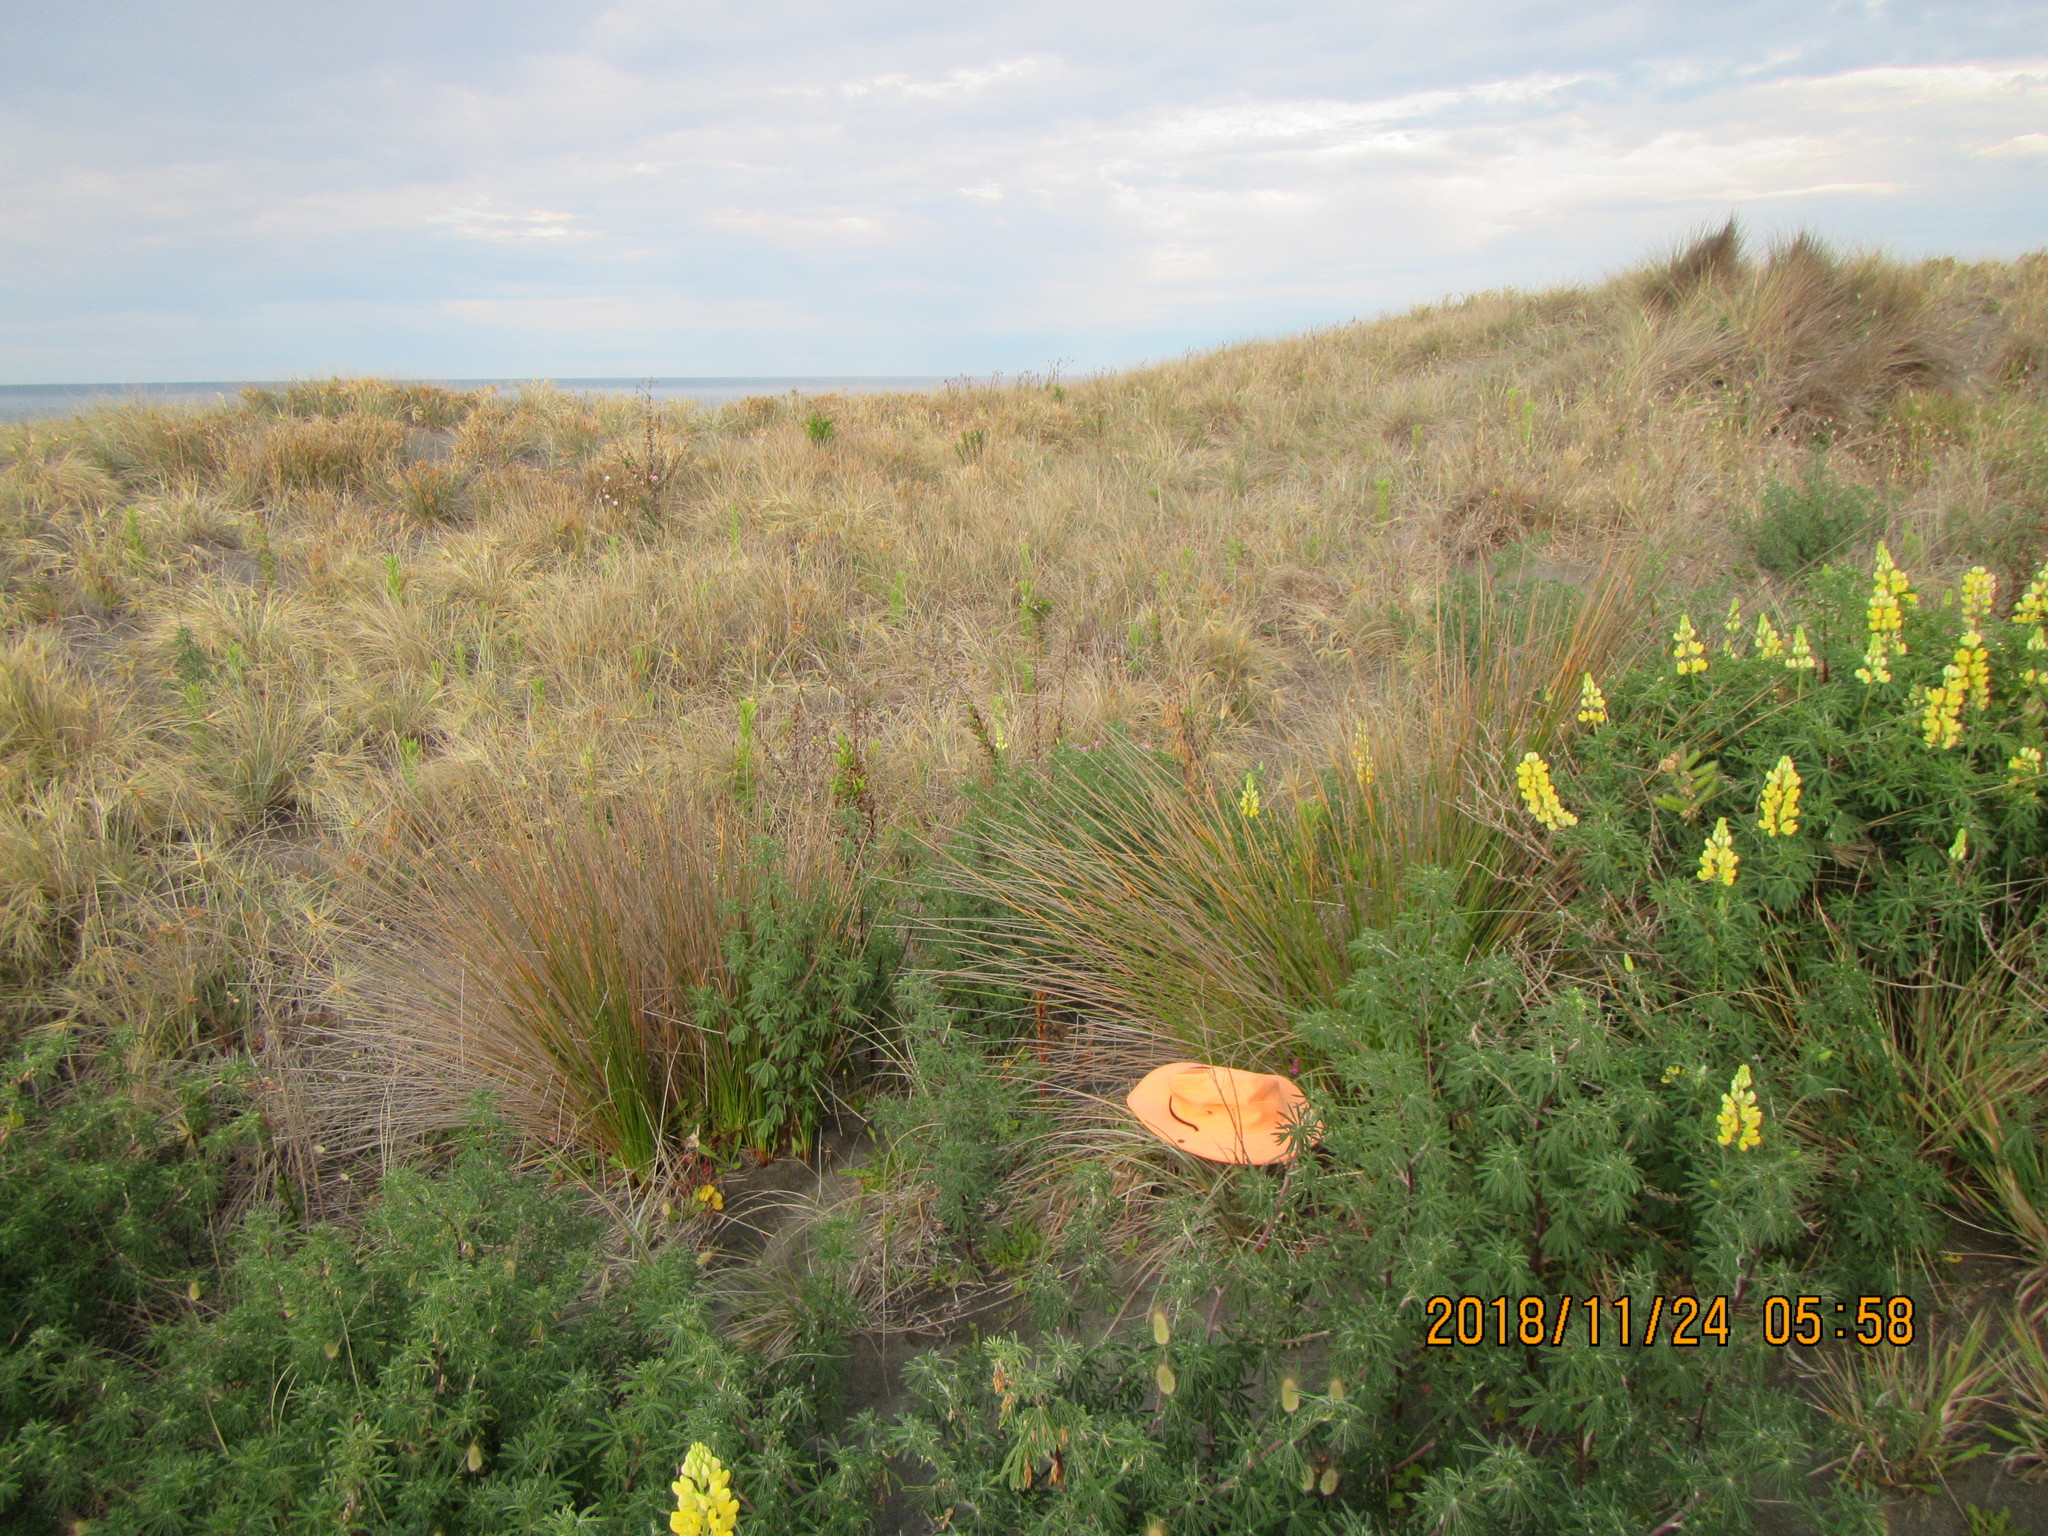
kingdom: Plantae
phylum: Tracheophyta
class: Magnoliopsida
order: Asterales
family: Asteraceae
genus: Senecio
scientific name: Senecio elegans
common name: Purple groundsel
